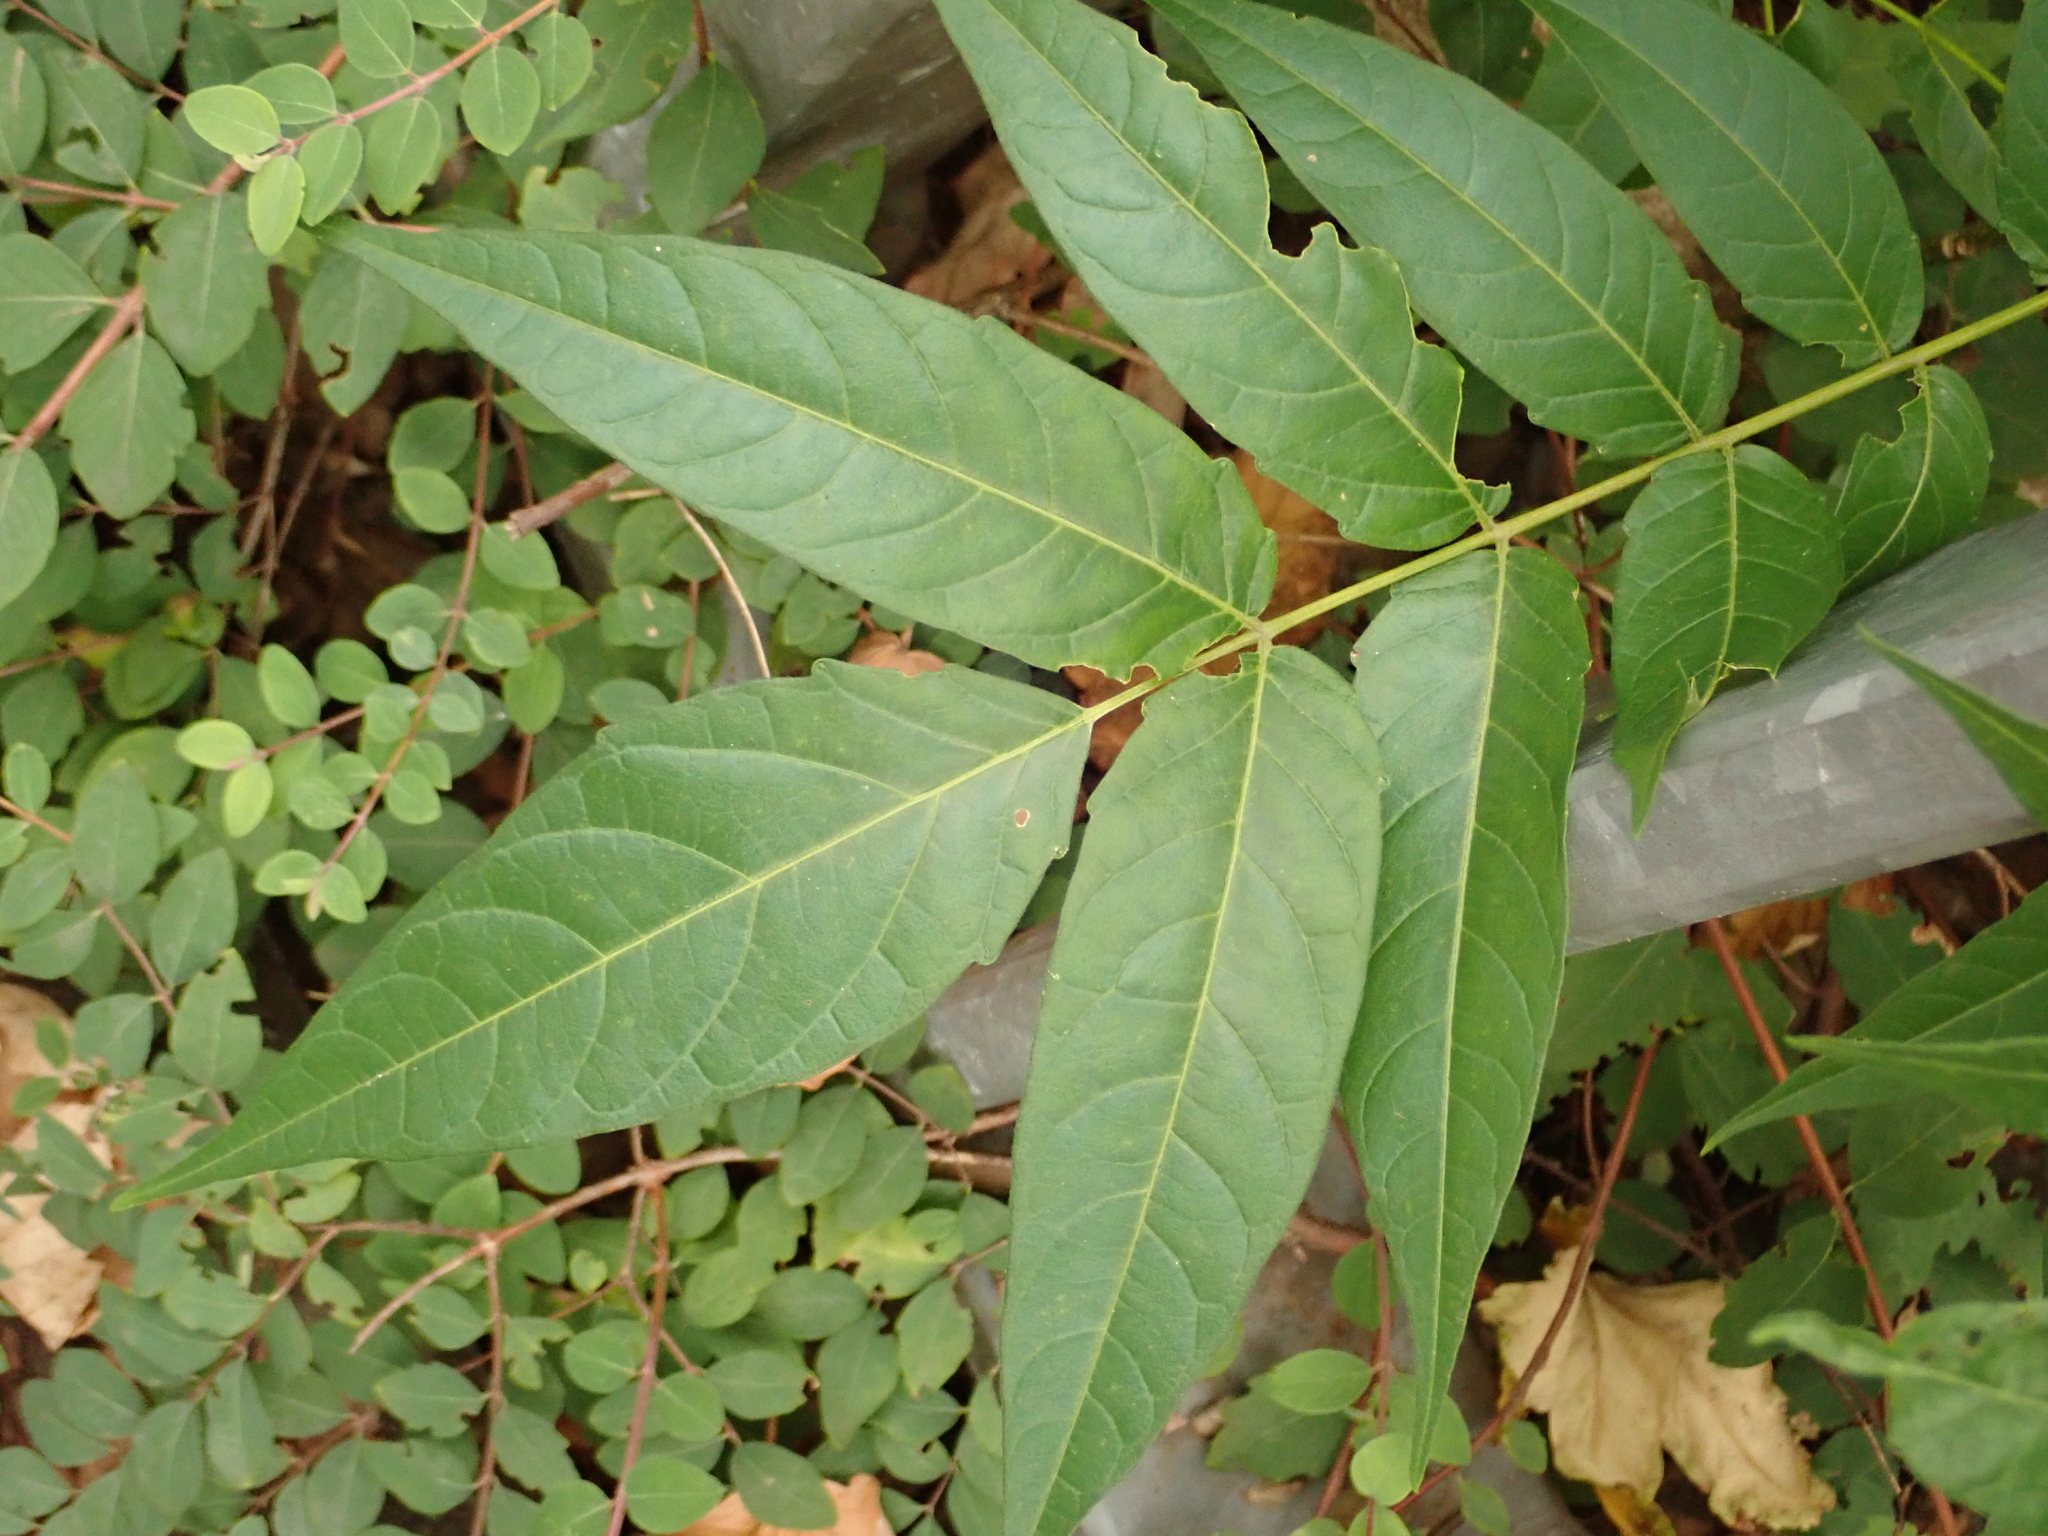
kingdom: Plantae
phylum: Tracheophyta
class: Magnoliopsida
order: Sapindales
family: Simaroubaceae
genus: Ailanthus
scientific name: Ailanthus altissima
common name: Tree-of-heaven
